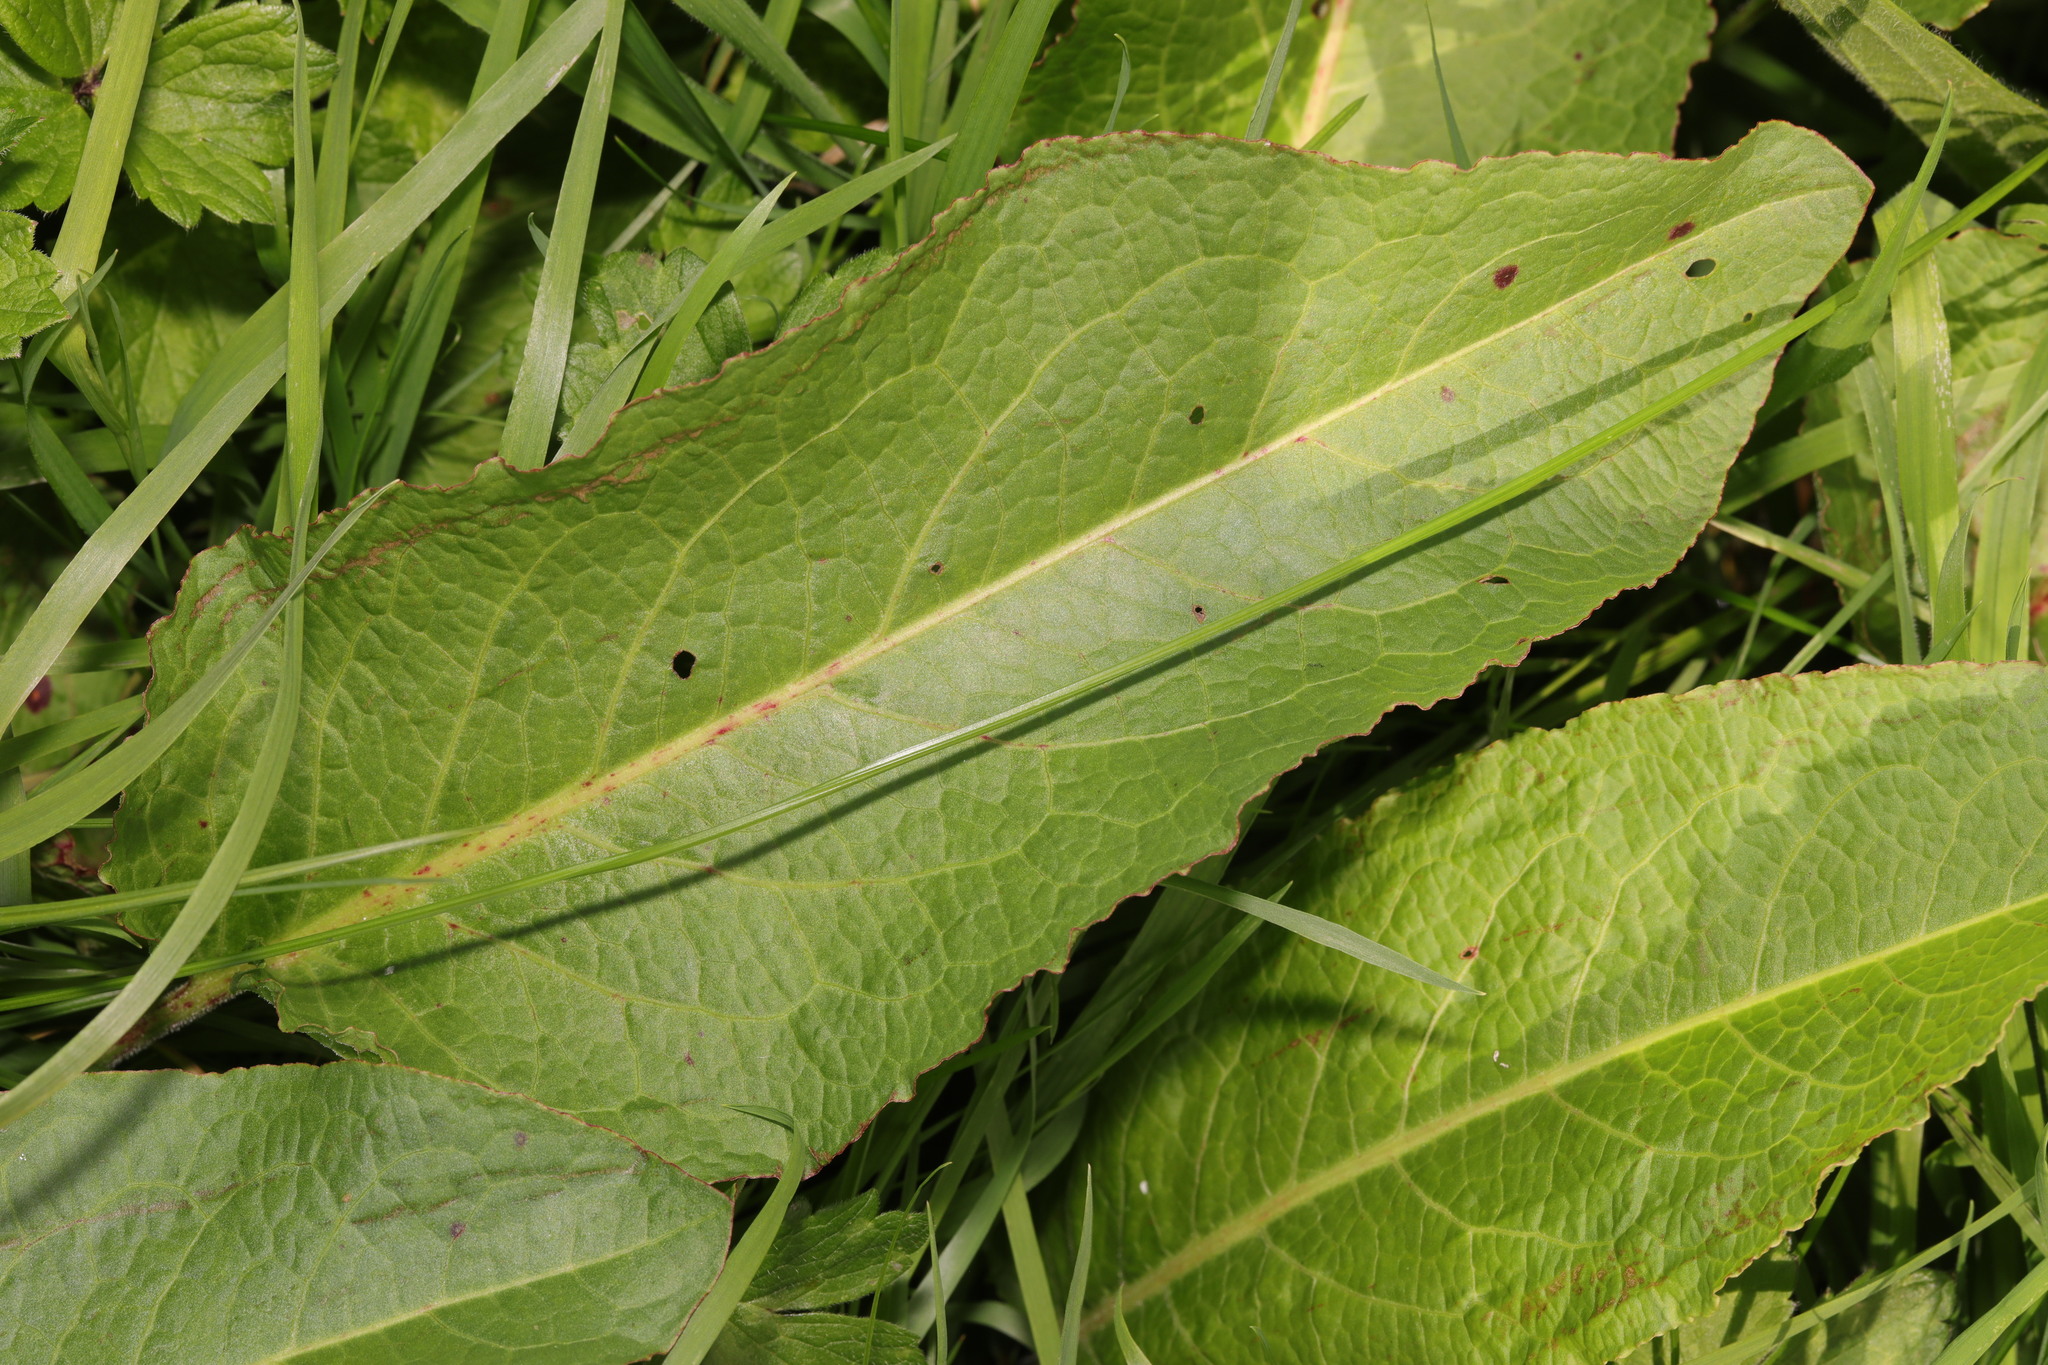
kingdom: Plantae
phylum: Tracheophyta
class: Magnoliopsida
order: Caryophyllales
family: Polygonaceae
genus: Rumex
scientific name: Rumex obtusifolius
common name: Bitter dock
